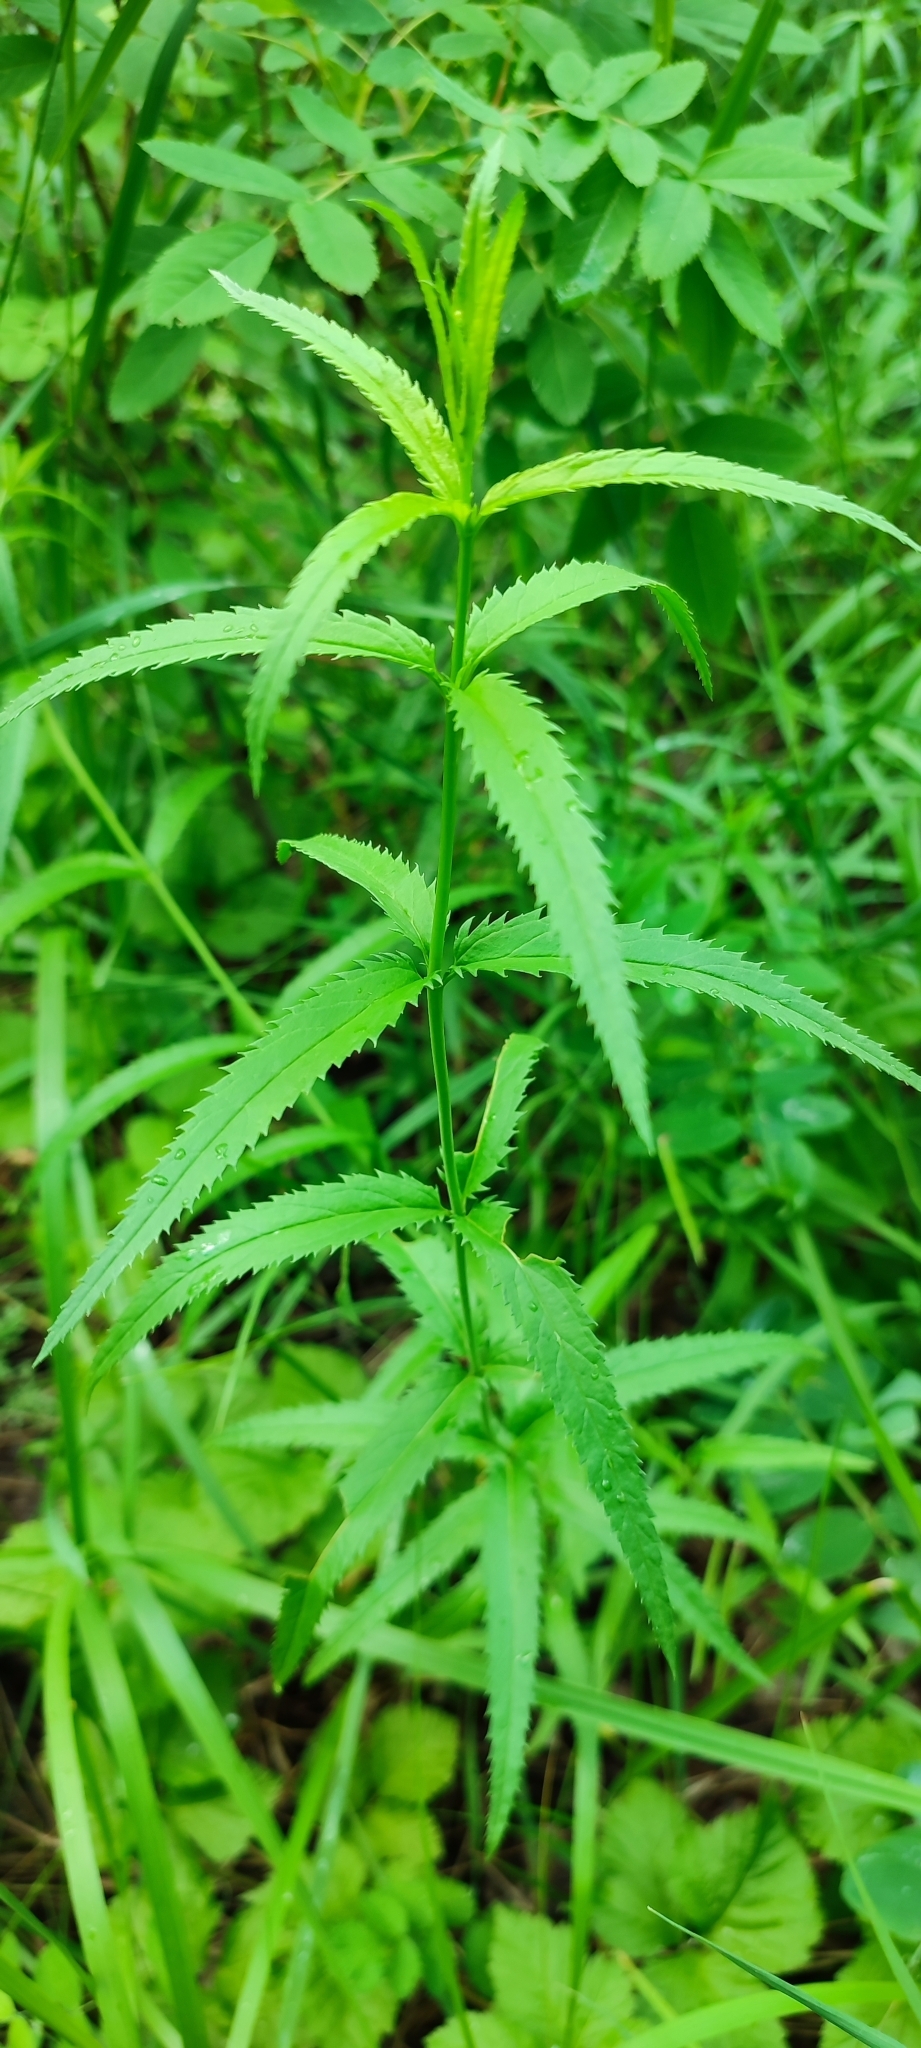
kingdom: Plantae
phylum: Tracheophyta
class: Magnoliopsida
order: Lamiales
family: Plantaginaceae
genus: Veronica
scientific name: Veronica longifolia
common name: Garden speedwell
